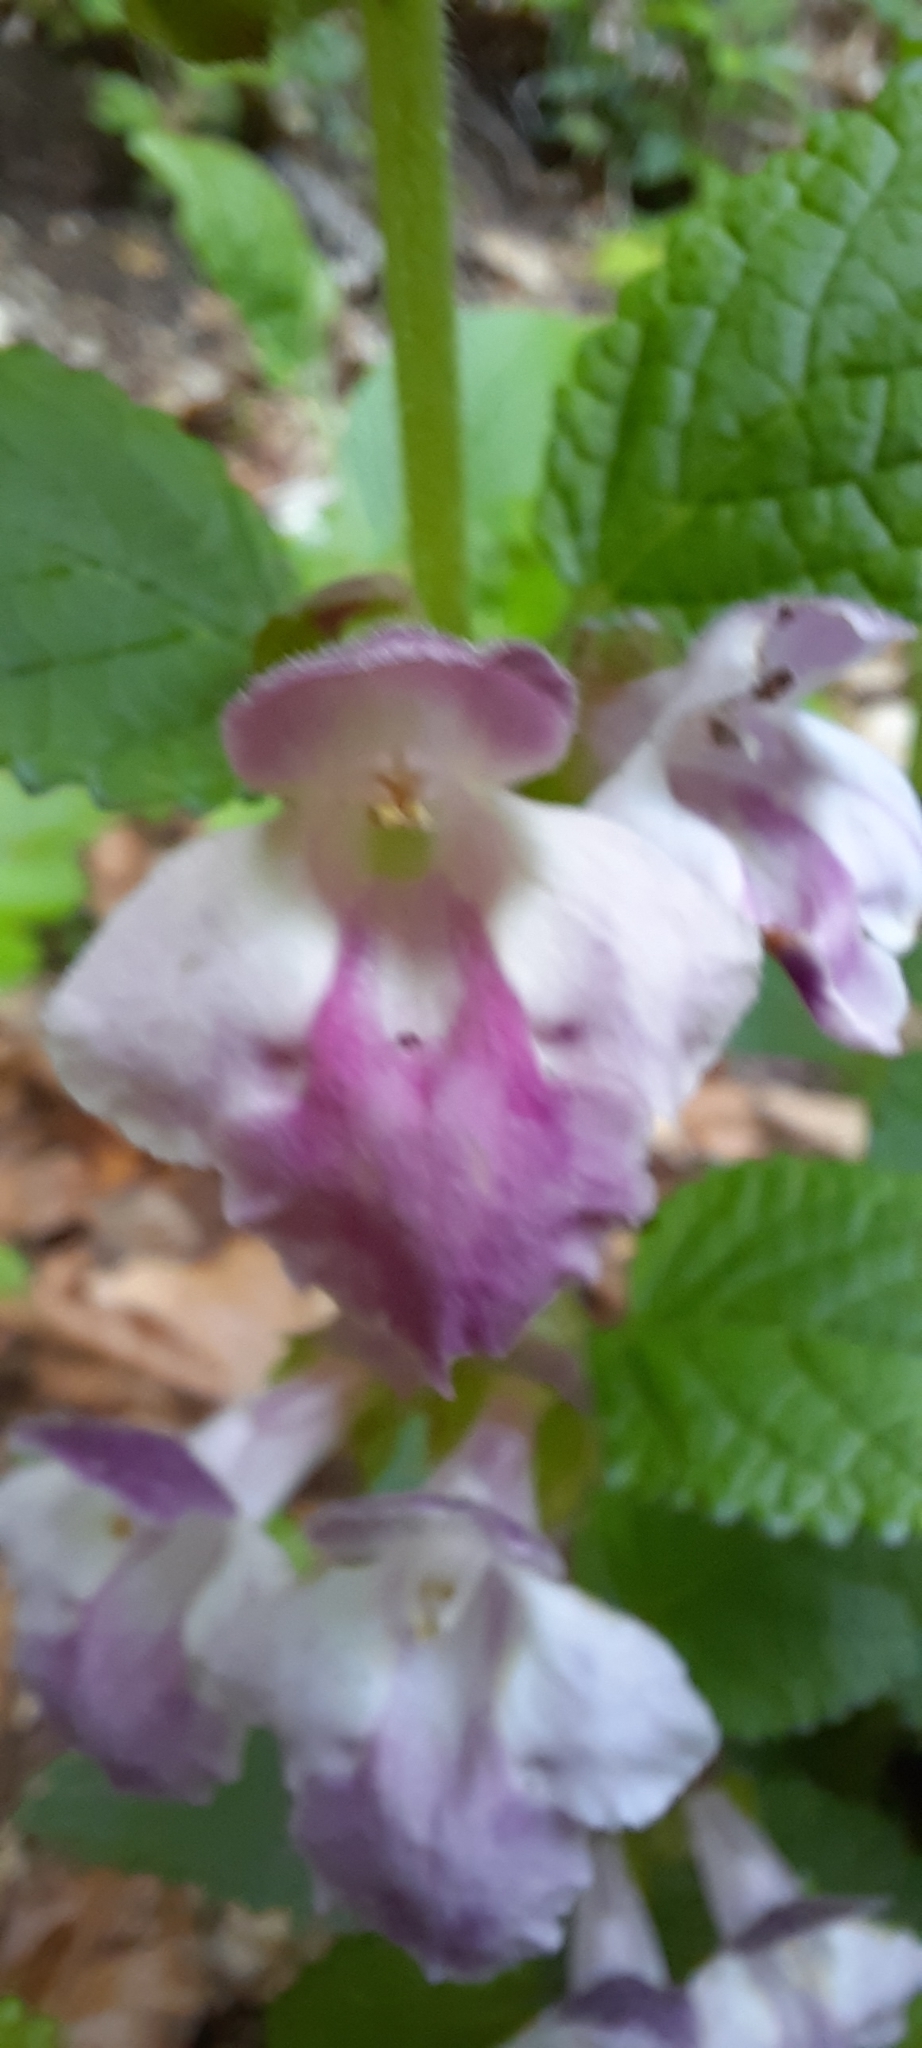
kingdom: Plantae
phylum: Tracheophyta
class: Magnoliopsida
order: Lamiales
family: Lamiaceae
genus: Melittis
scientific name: Melittis melissophyllum
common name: Bastard balm
